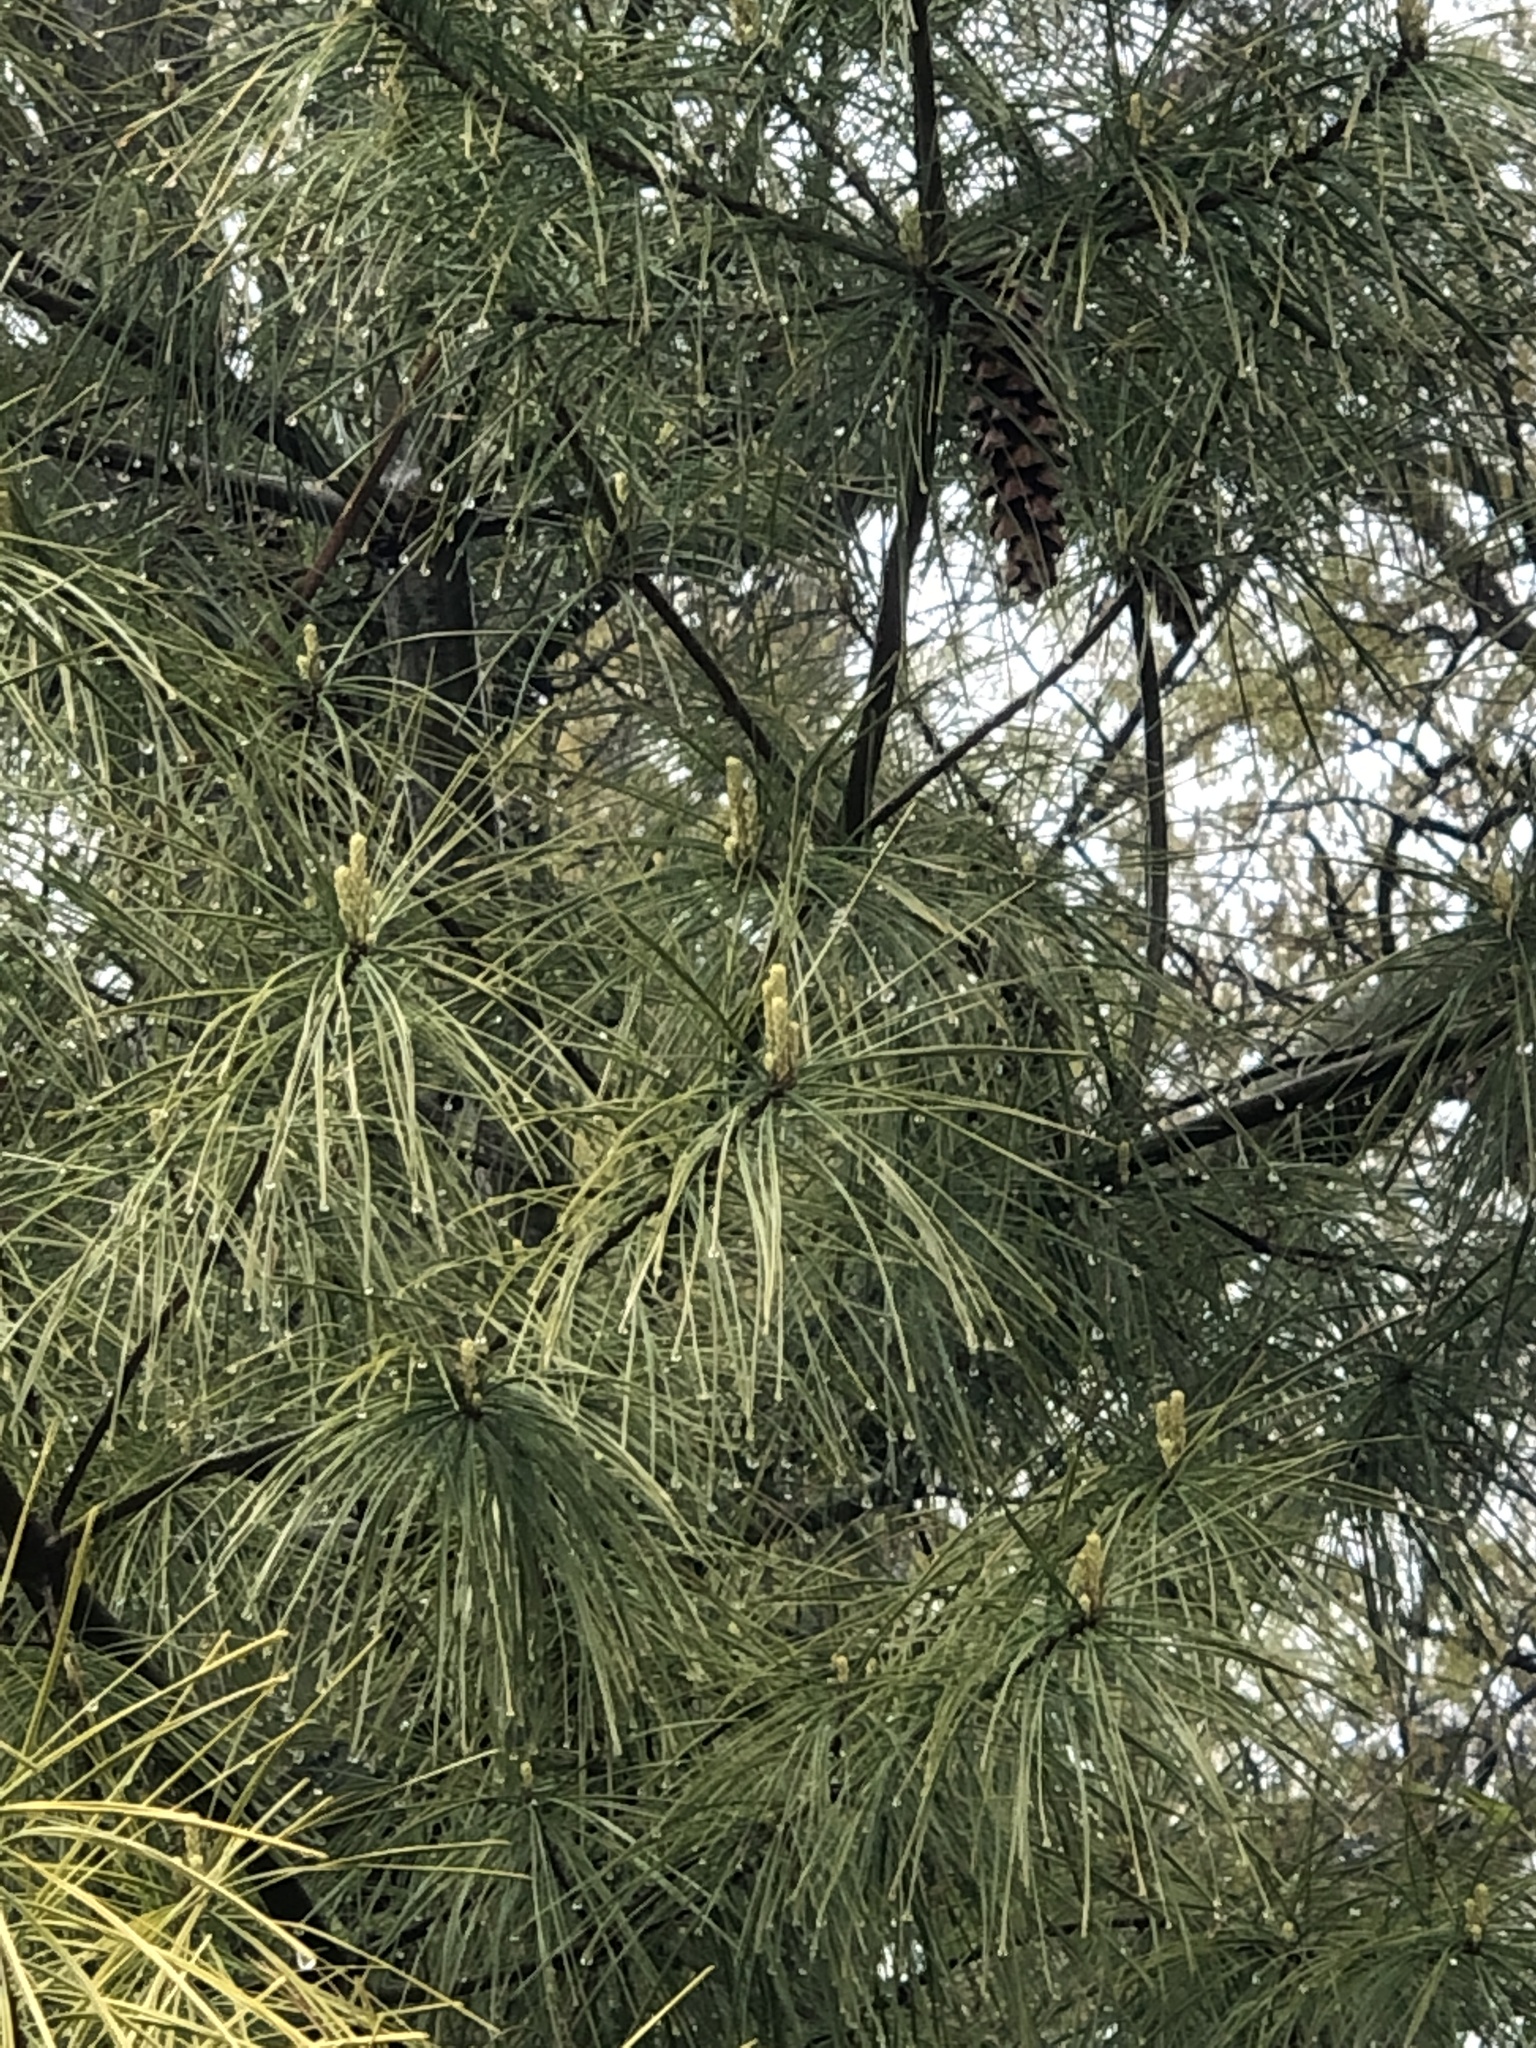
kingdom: Plantae
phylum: Tracheophyta
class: Pinopsida
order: Pinales
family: Pinaceae
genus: Pinus
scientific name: Pinus strobus
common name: Weymouth pine
